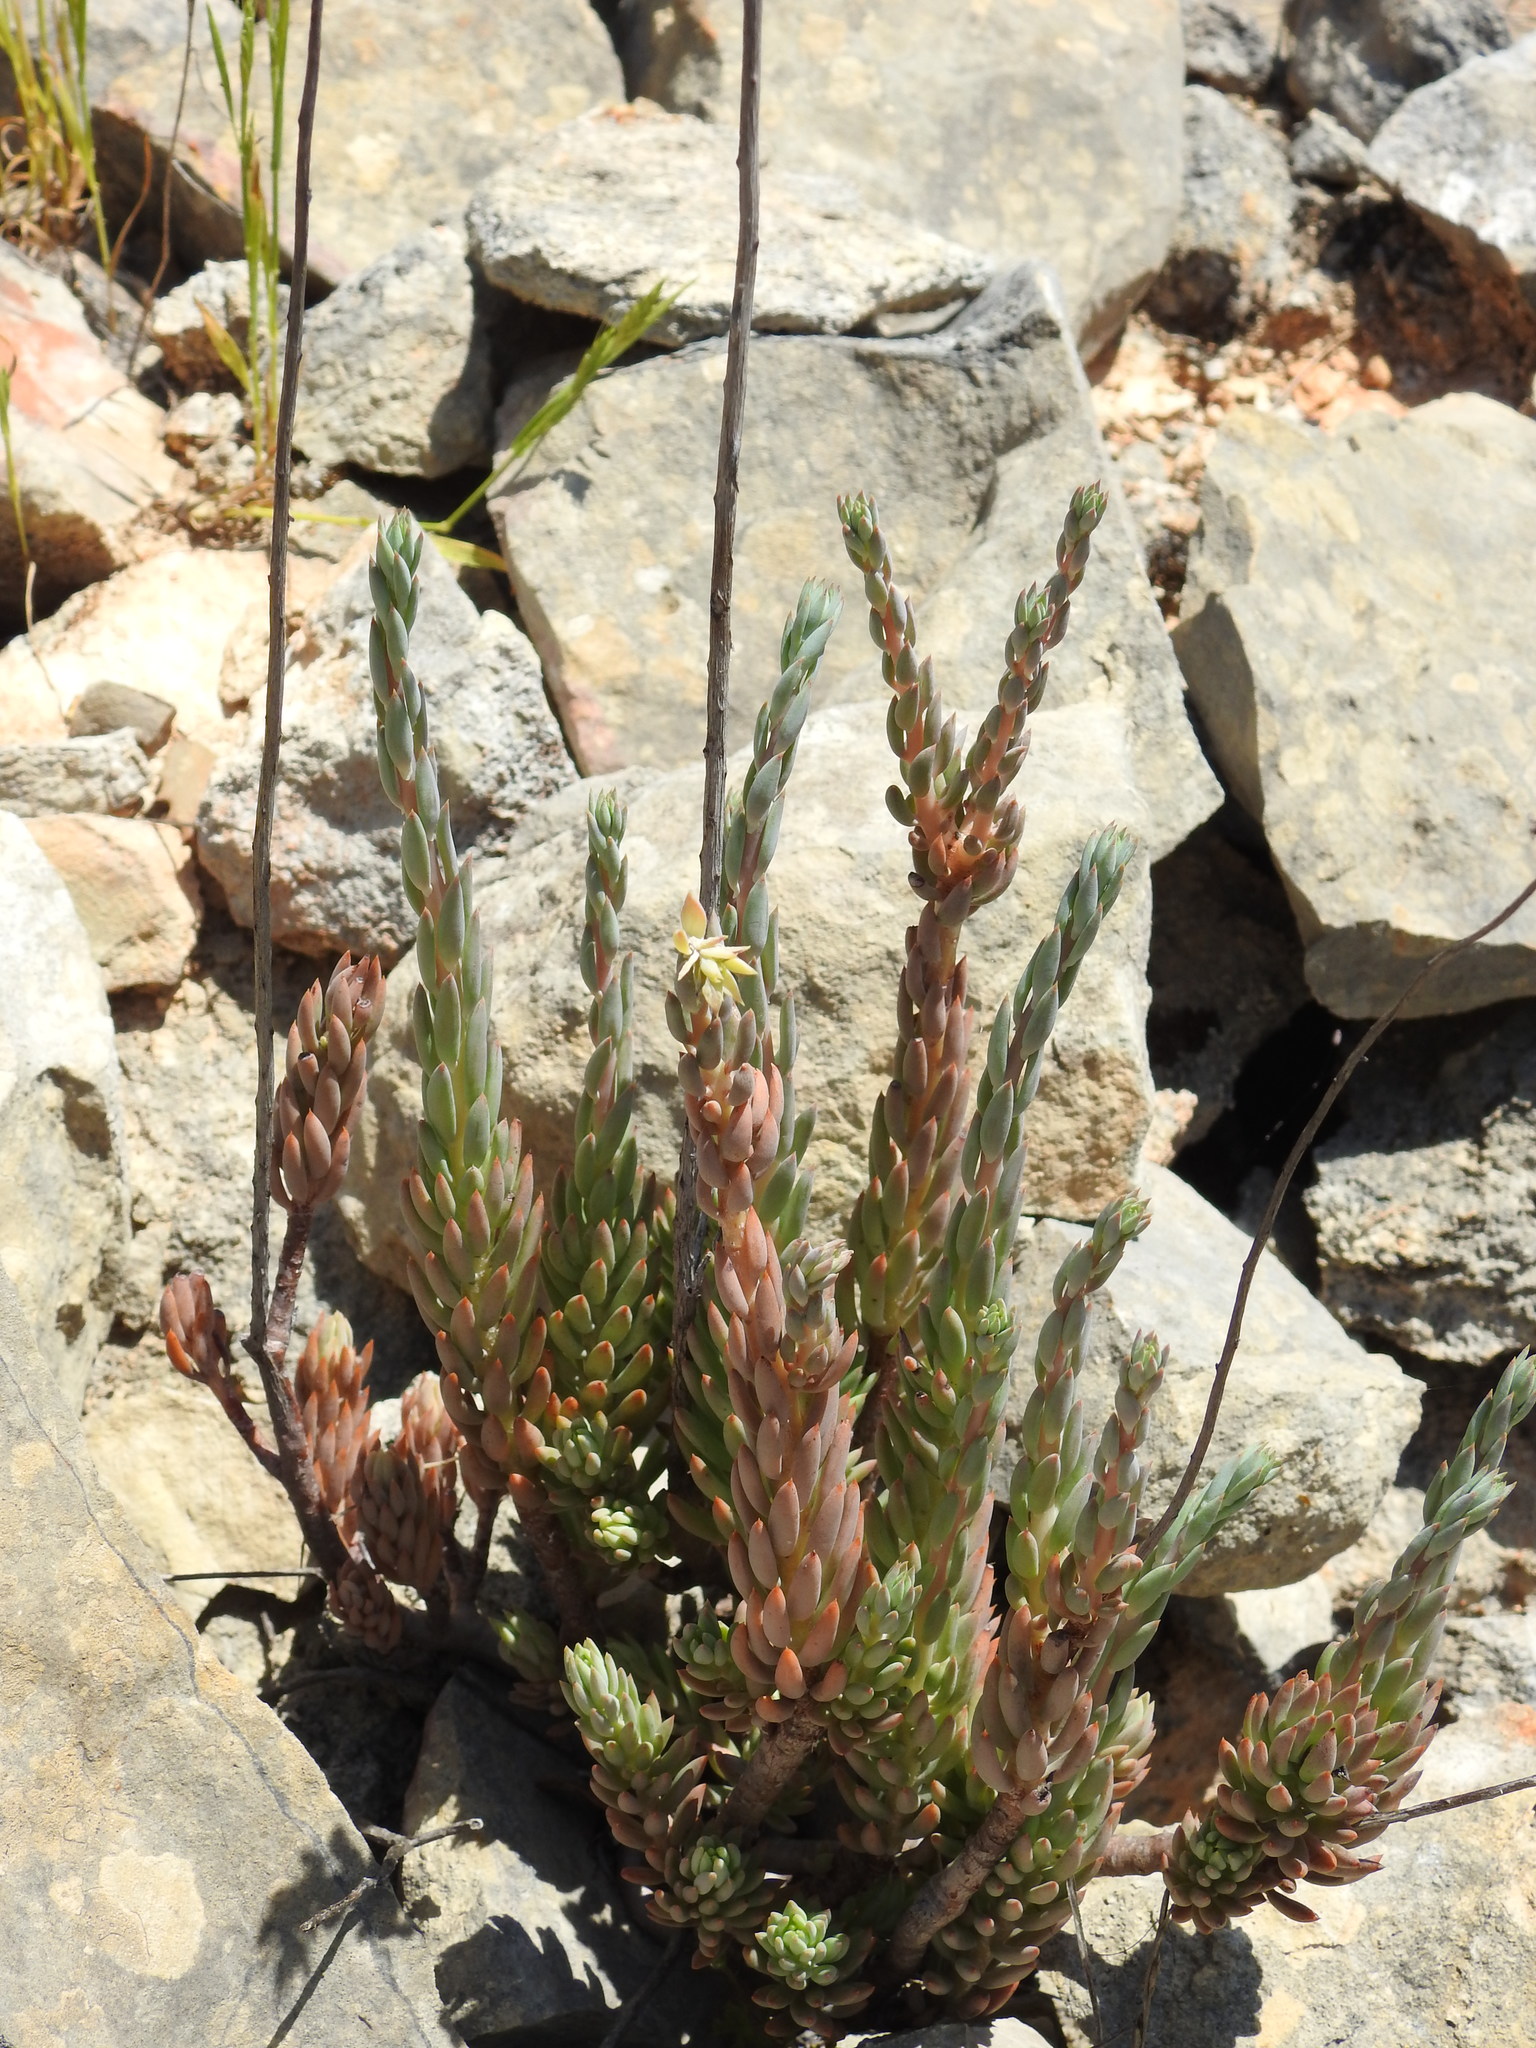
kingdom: Plantae
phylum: Tracheophyta
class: Magnoliopsida
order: Saxifragales
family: Crassulaceae
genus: Petrosedum
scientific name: Petrosedum sediforme
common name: Pale stonecrop
